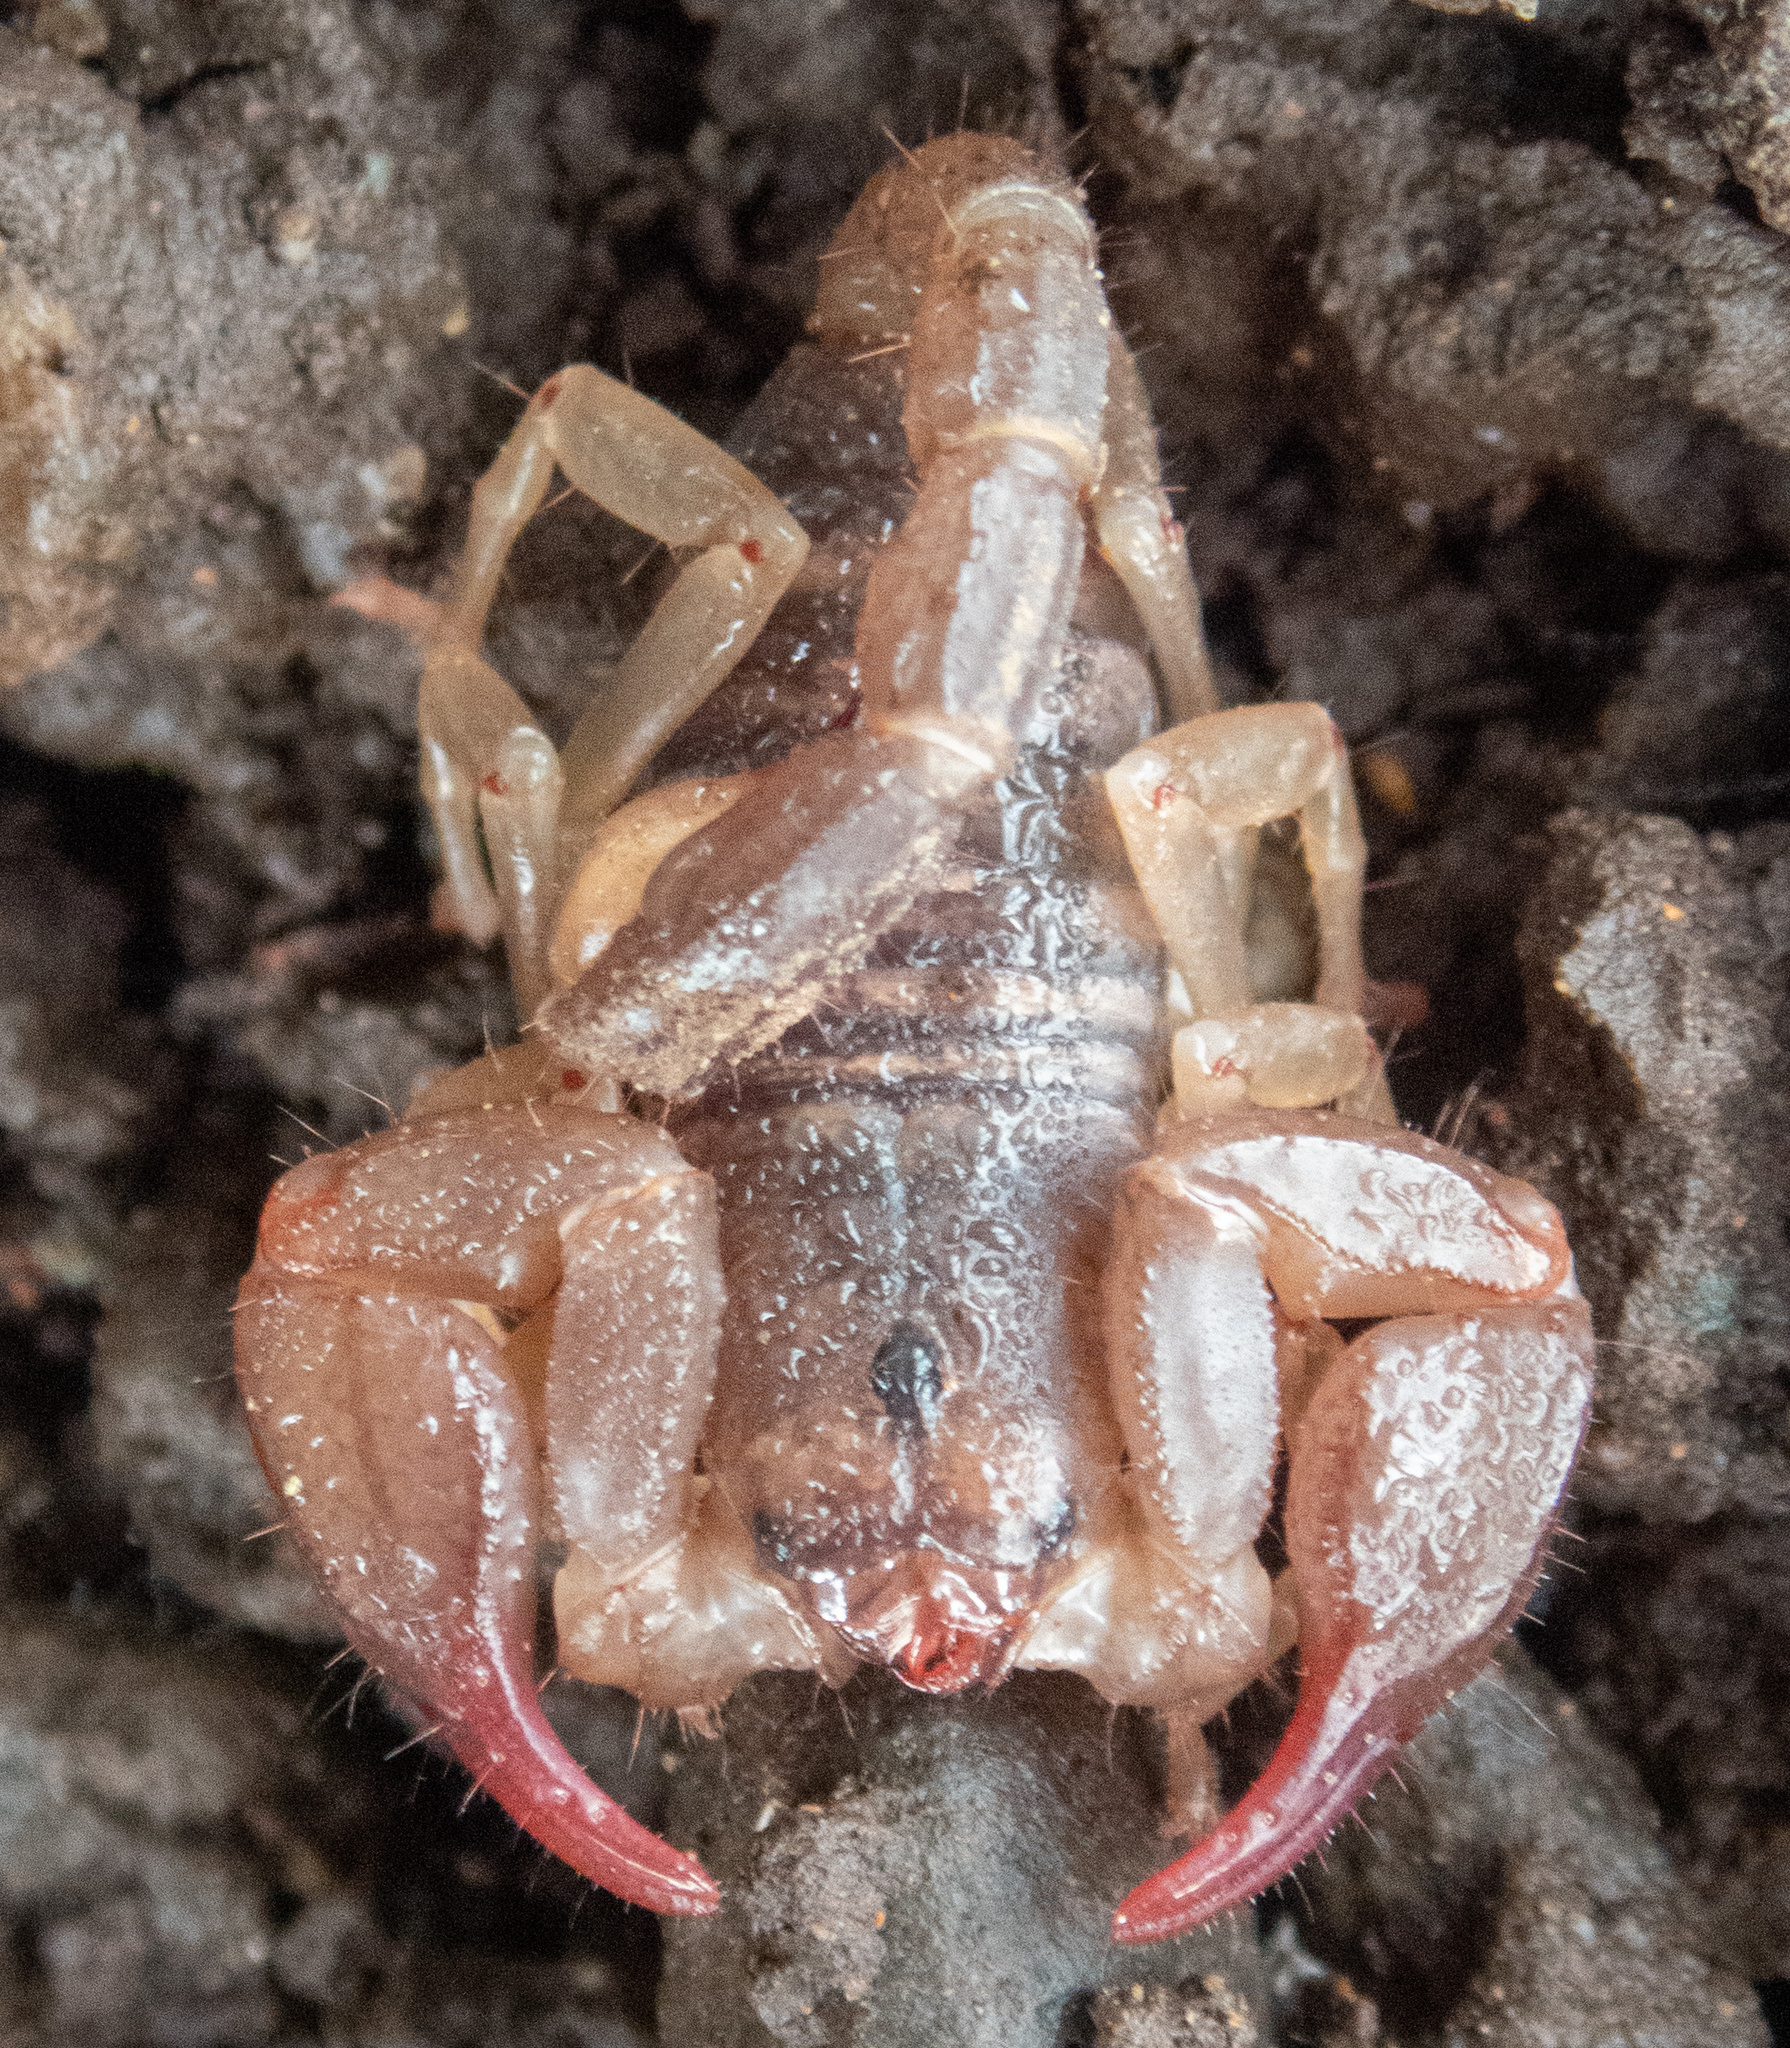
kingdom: Animalia
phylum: Arthropoda
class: Arachnida
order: Scorpiones
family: Chactidae
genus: Uroctonus
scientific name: Uroctonus mordax
